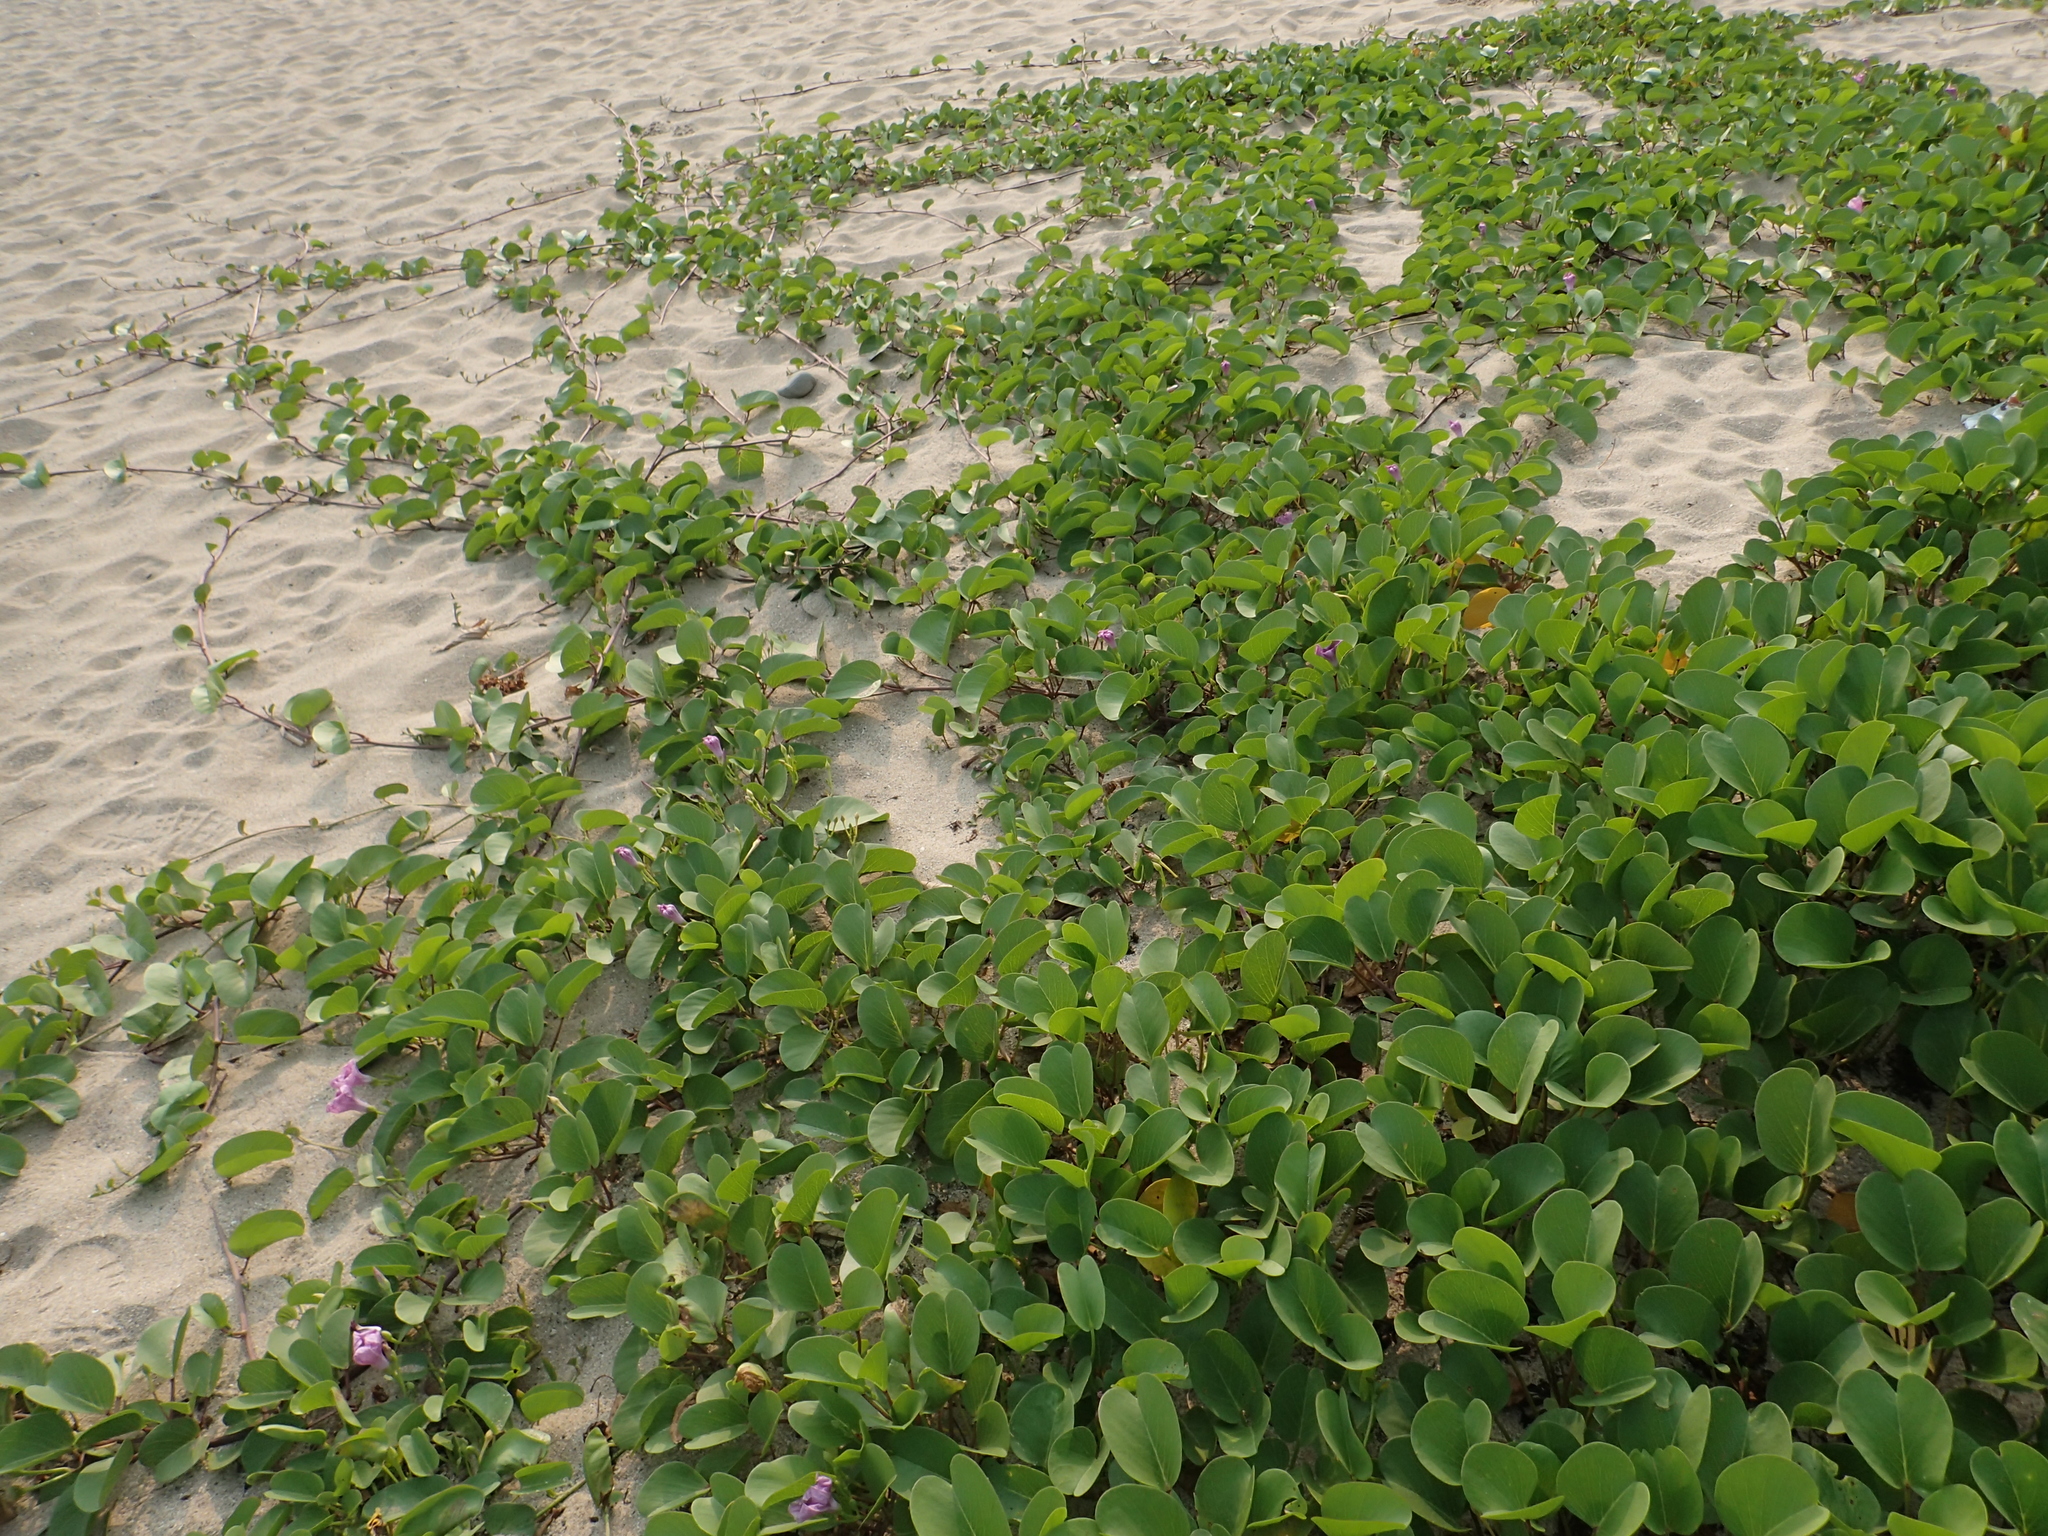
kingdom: Plantae
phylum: Tracheophyta
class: Magnoliopsida
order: Solanales
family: Convolvulaceae
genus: Ipomoea
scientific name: Ipomoea pes-caprae
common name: Beach morning glory
